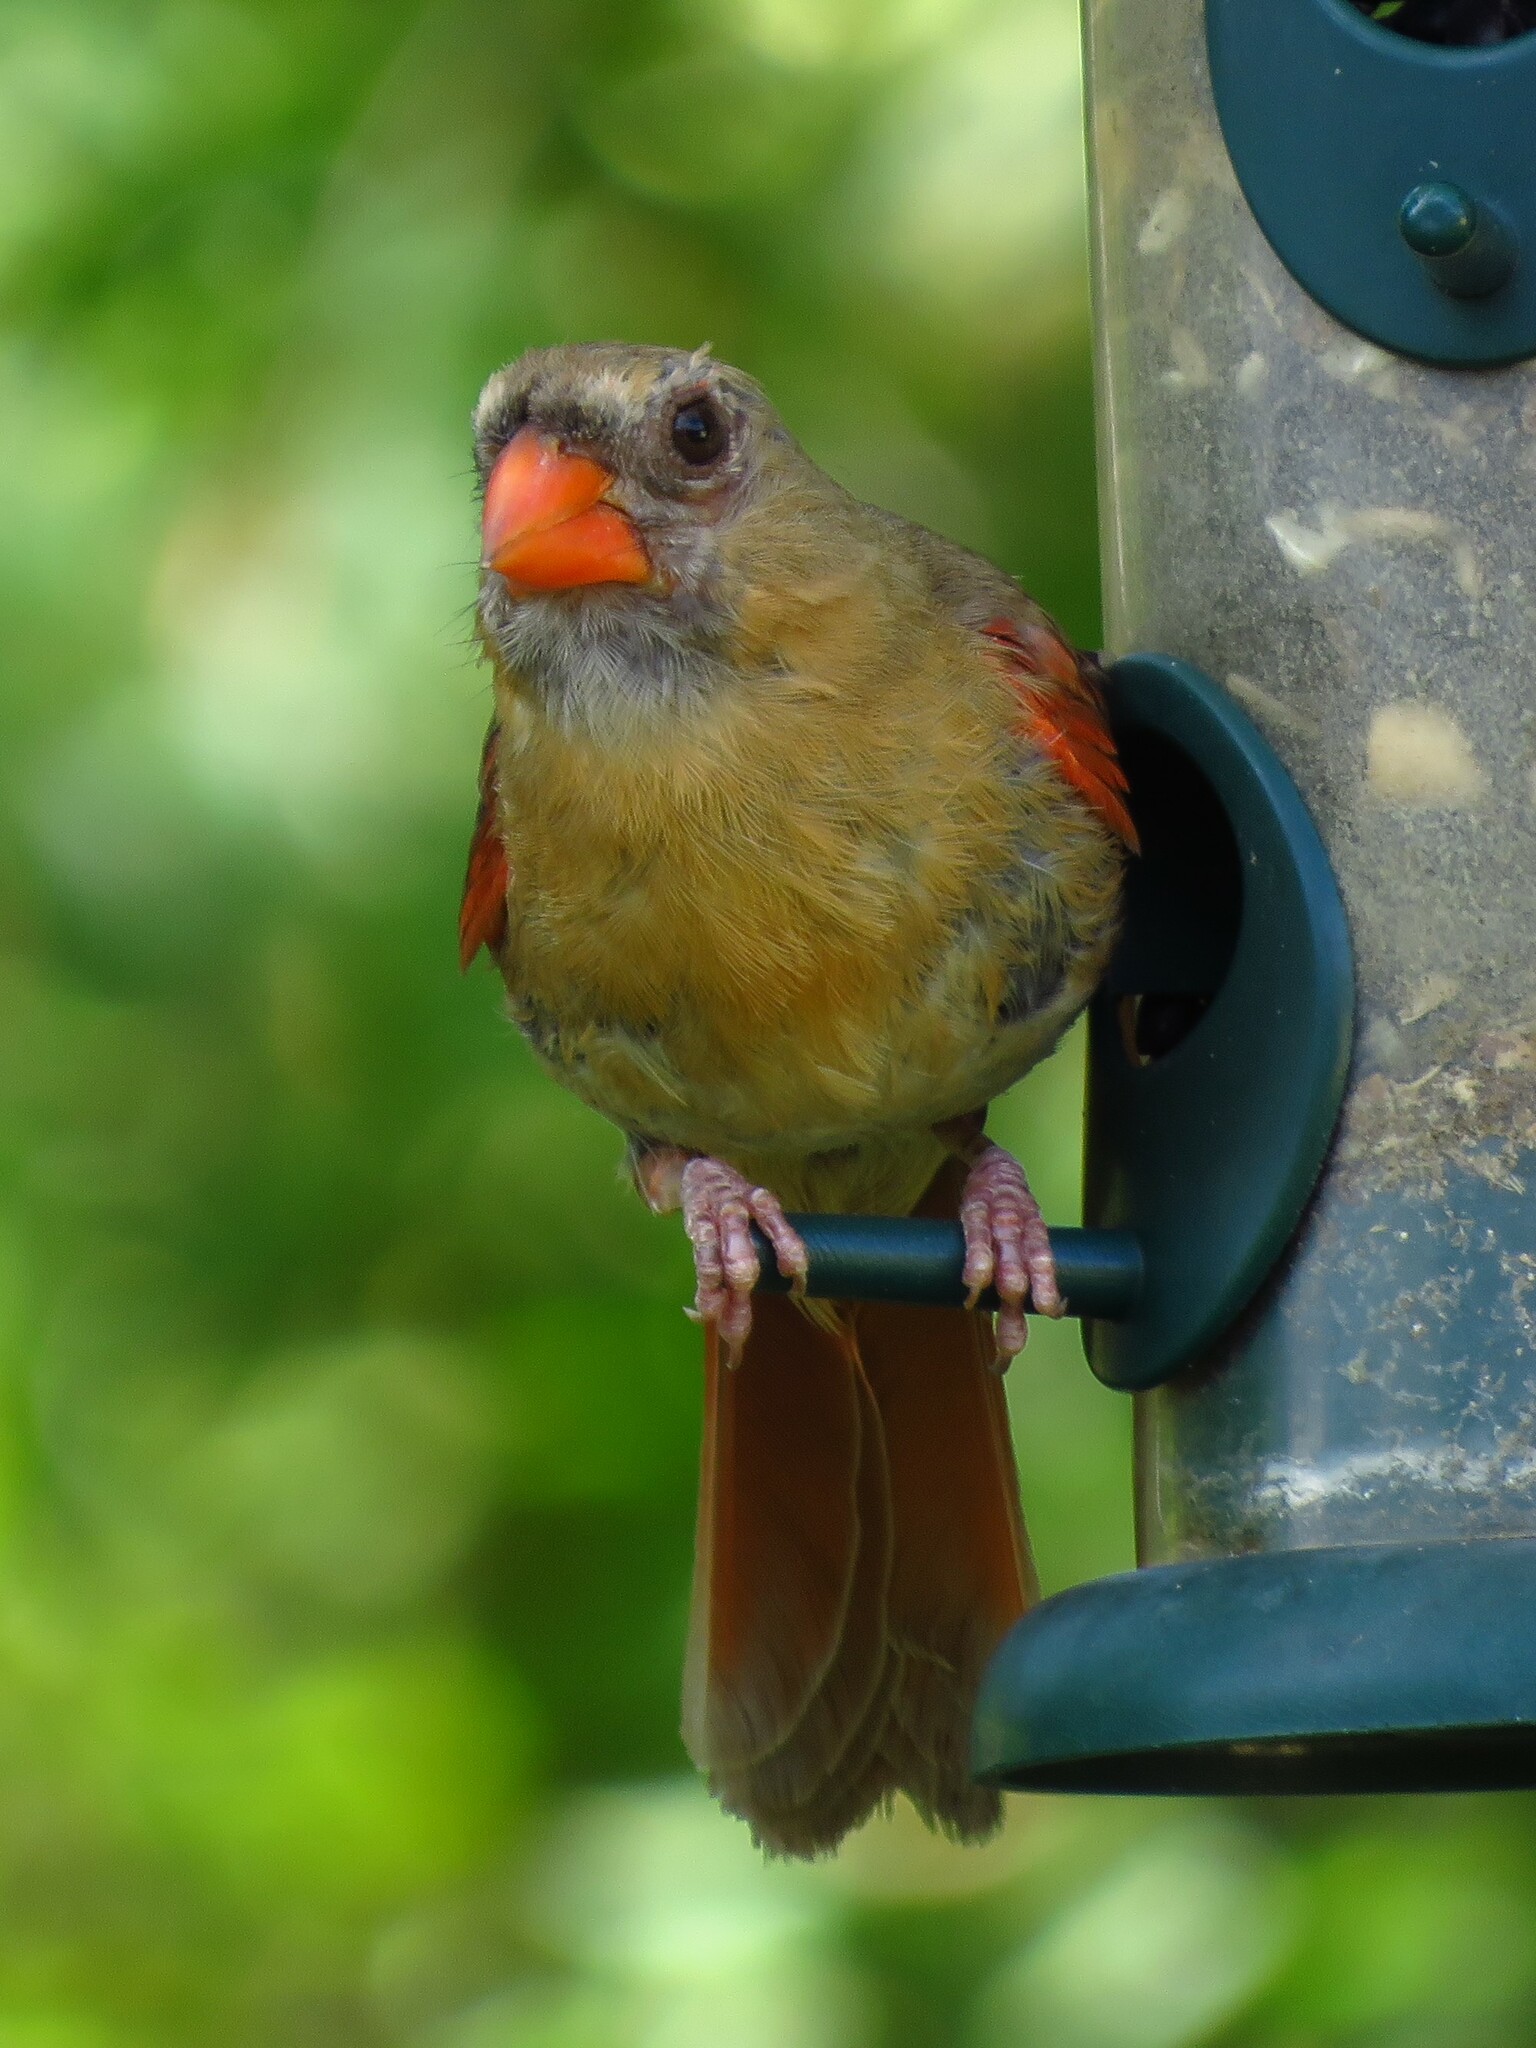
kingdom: Animalia
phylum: Chordata
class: Aves
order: Passeriformes
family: Cardinalidae
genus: Cardinalis
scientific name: Cardinalis cardinalis
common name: Northern cardinal
